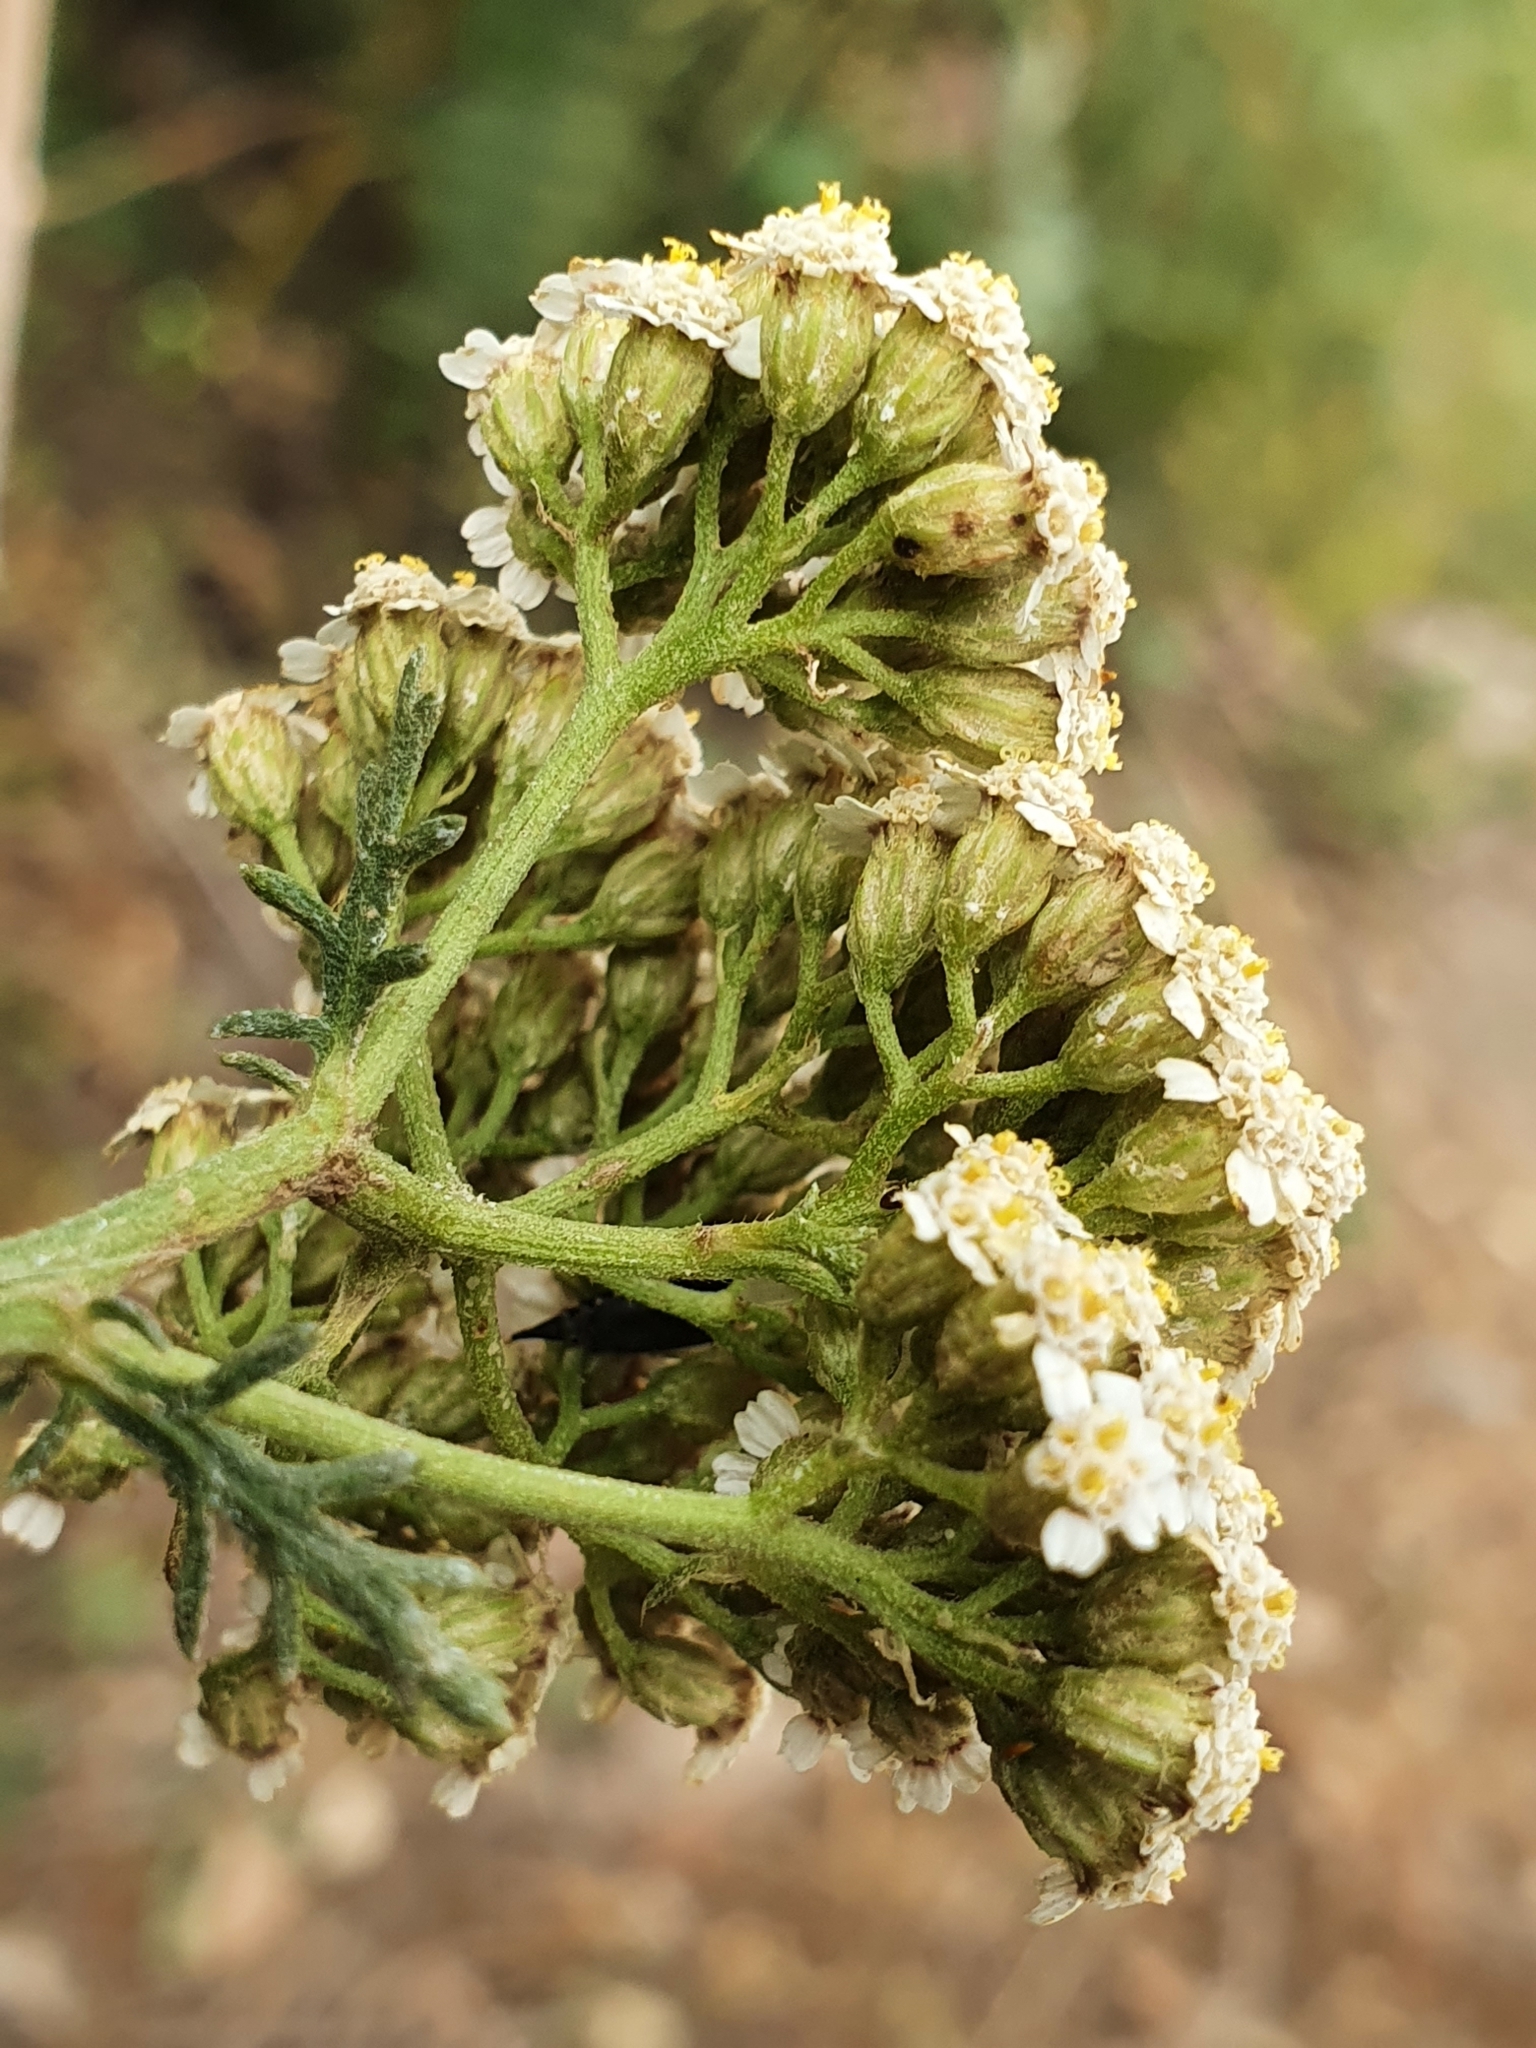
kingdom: Plantae
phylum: Tracheophyta
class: Magnoliopsida
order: Asterales
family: Asteraceae
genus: Achillea
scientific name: Achillea ligustica
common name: Southern yarrow
